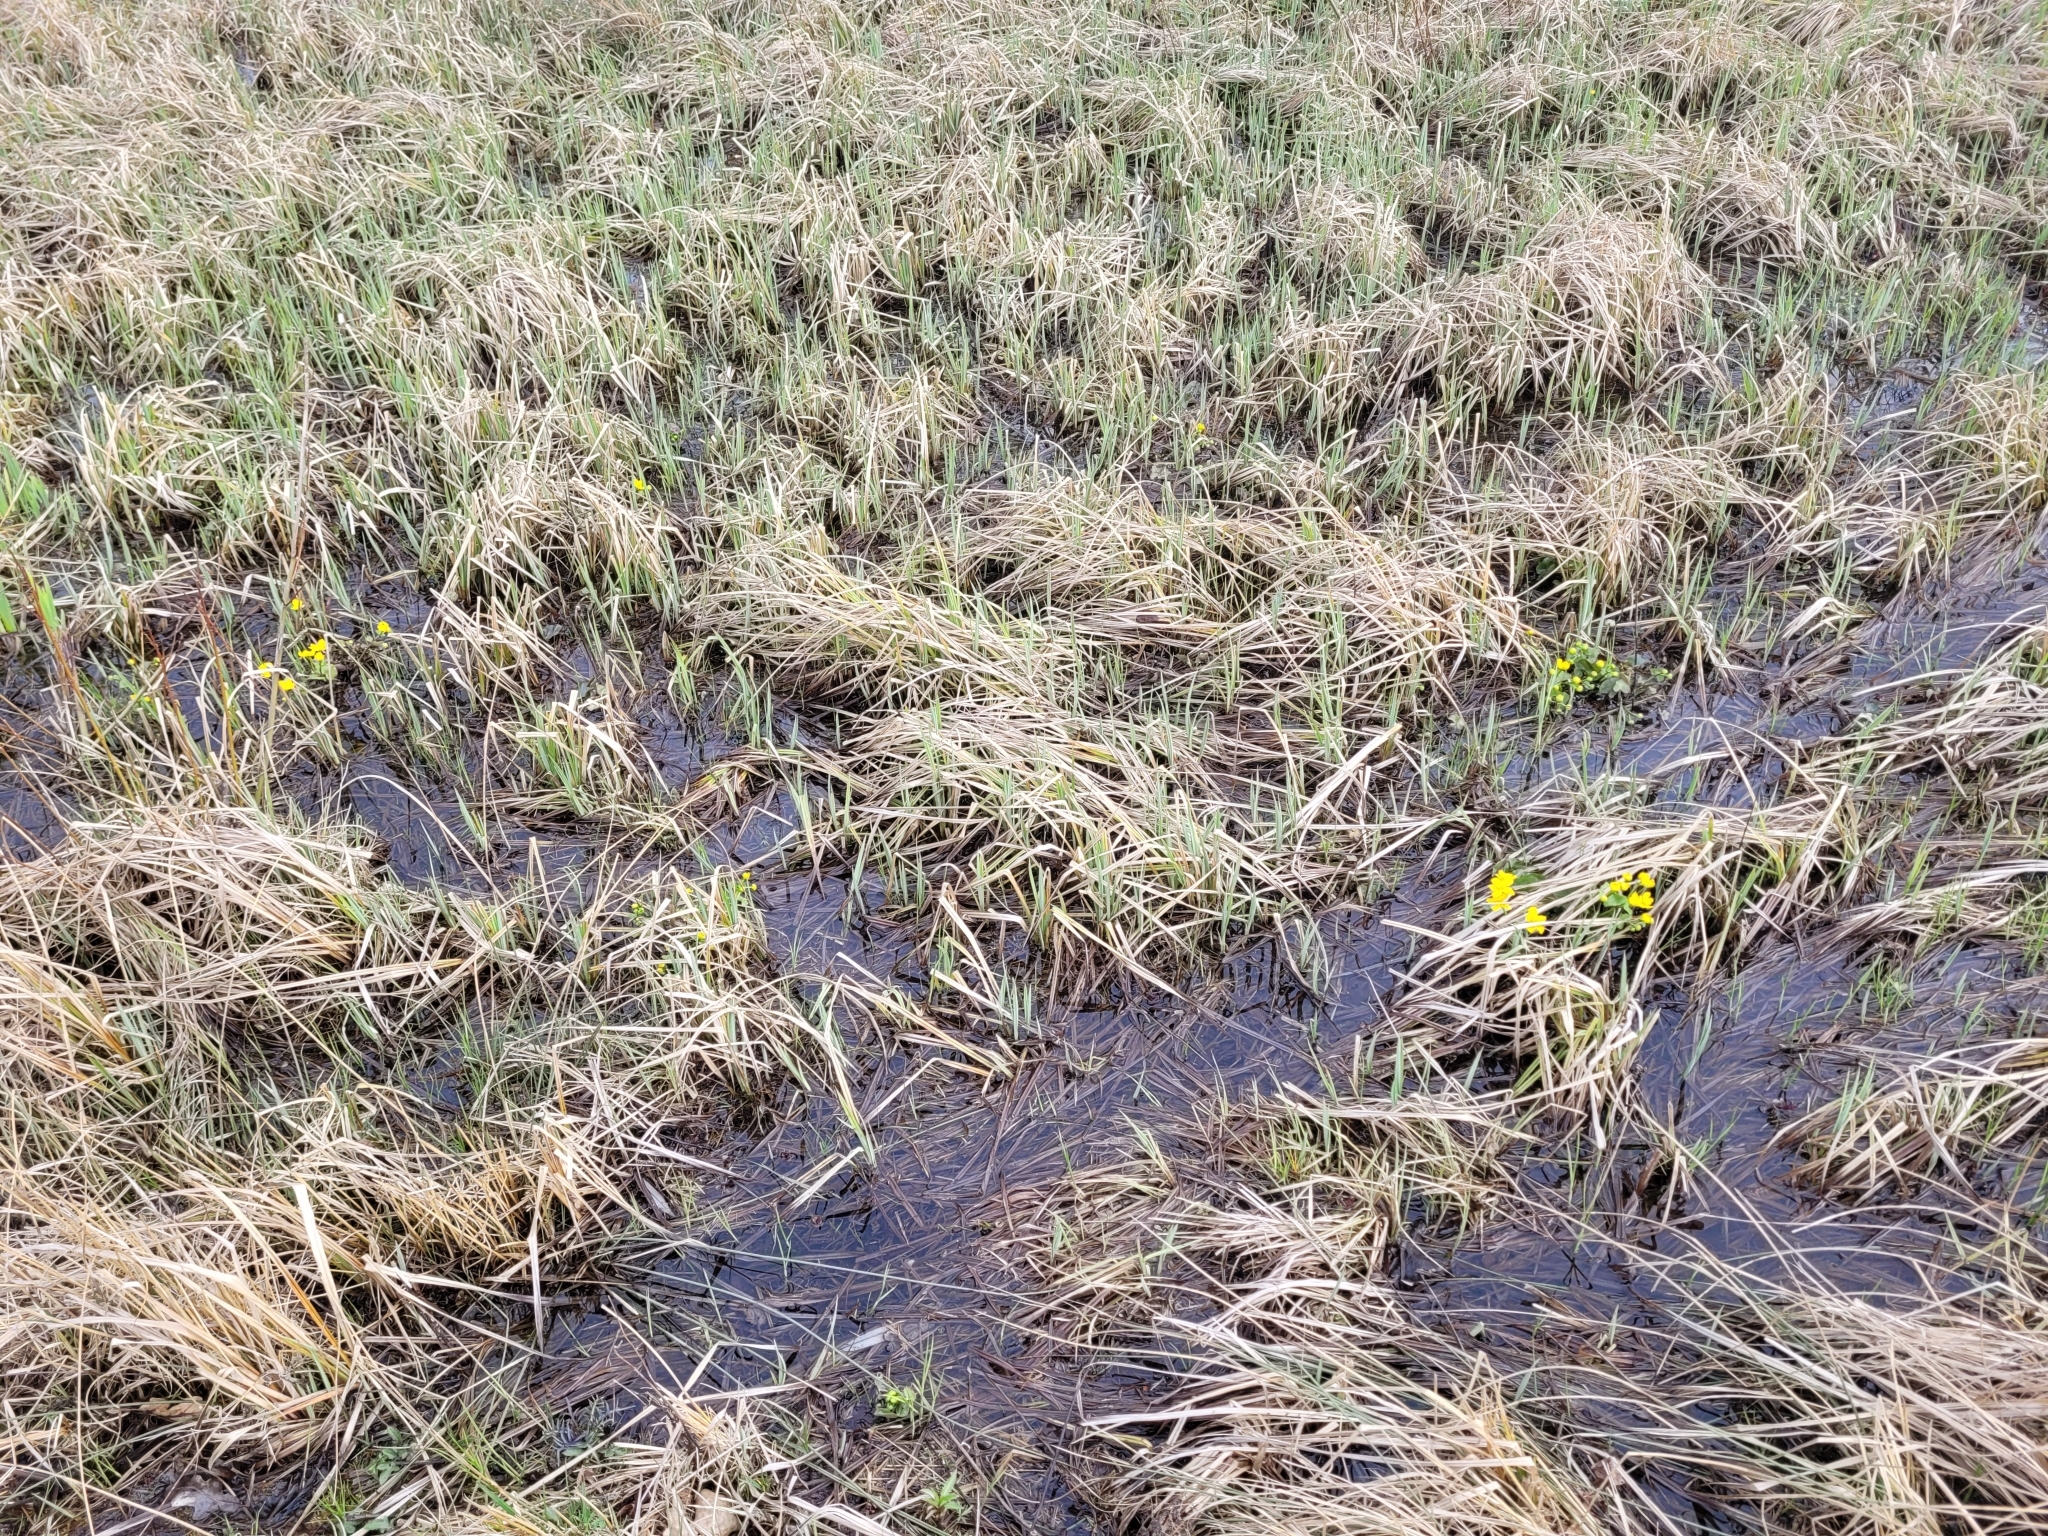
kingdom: Plantae
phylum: Tracheophyta
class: Magnoliopsida
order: Ranunculales
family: Ranunculaceae
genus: Caltha
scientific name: Caltha palustris
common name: Marsh marigold
